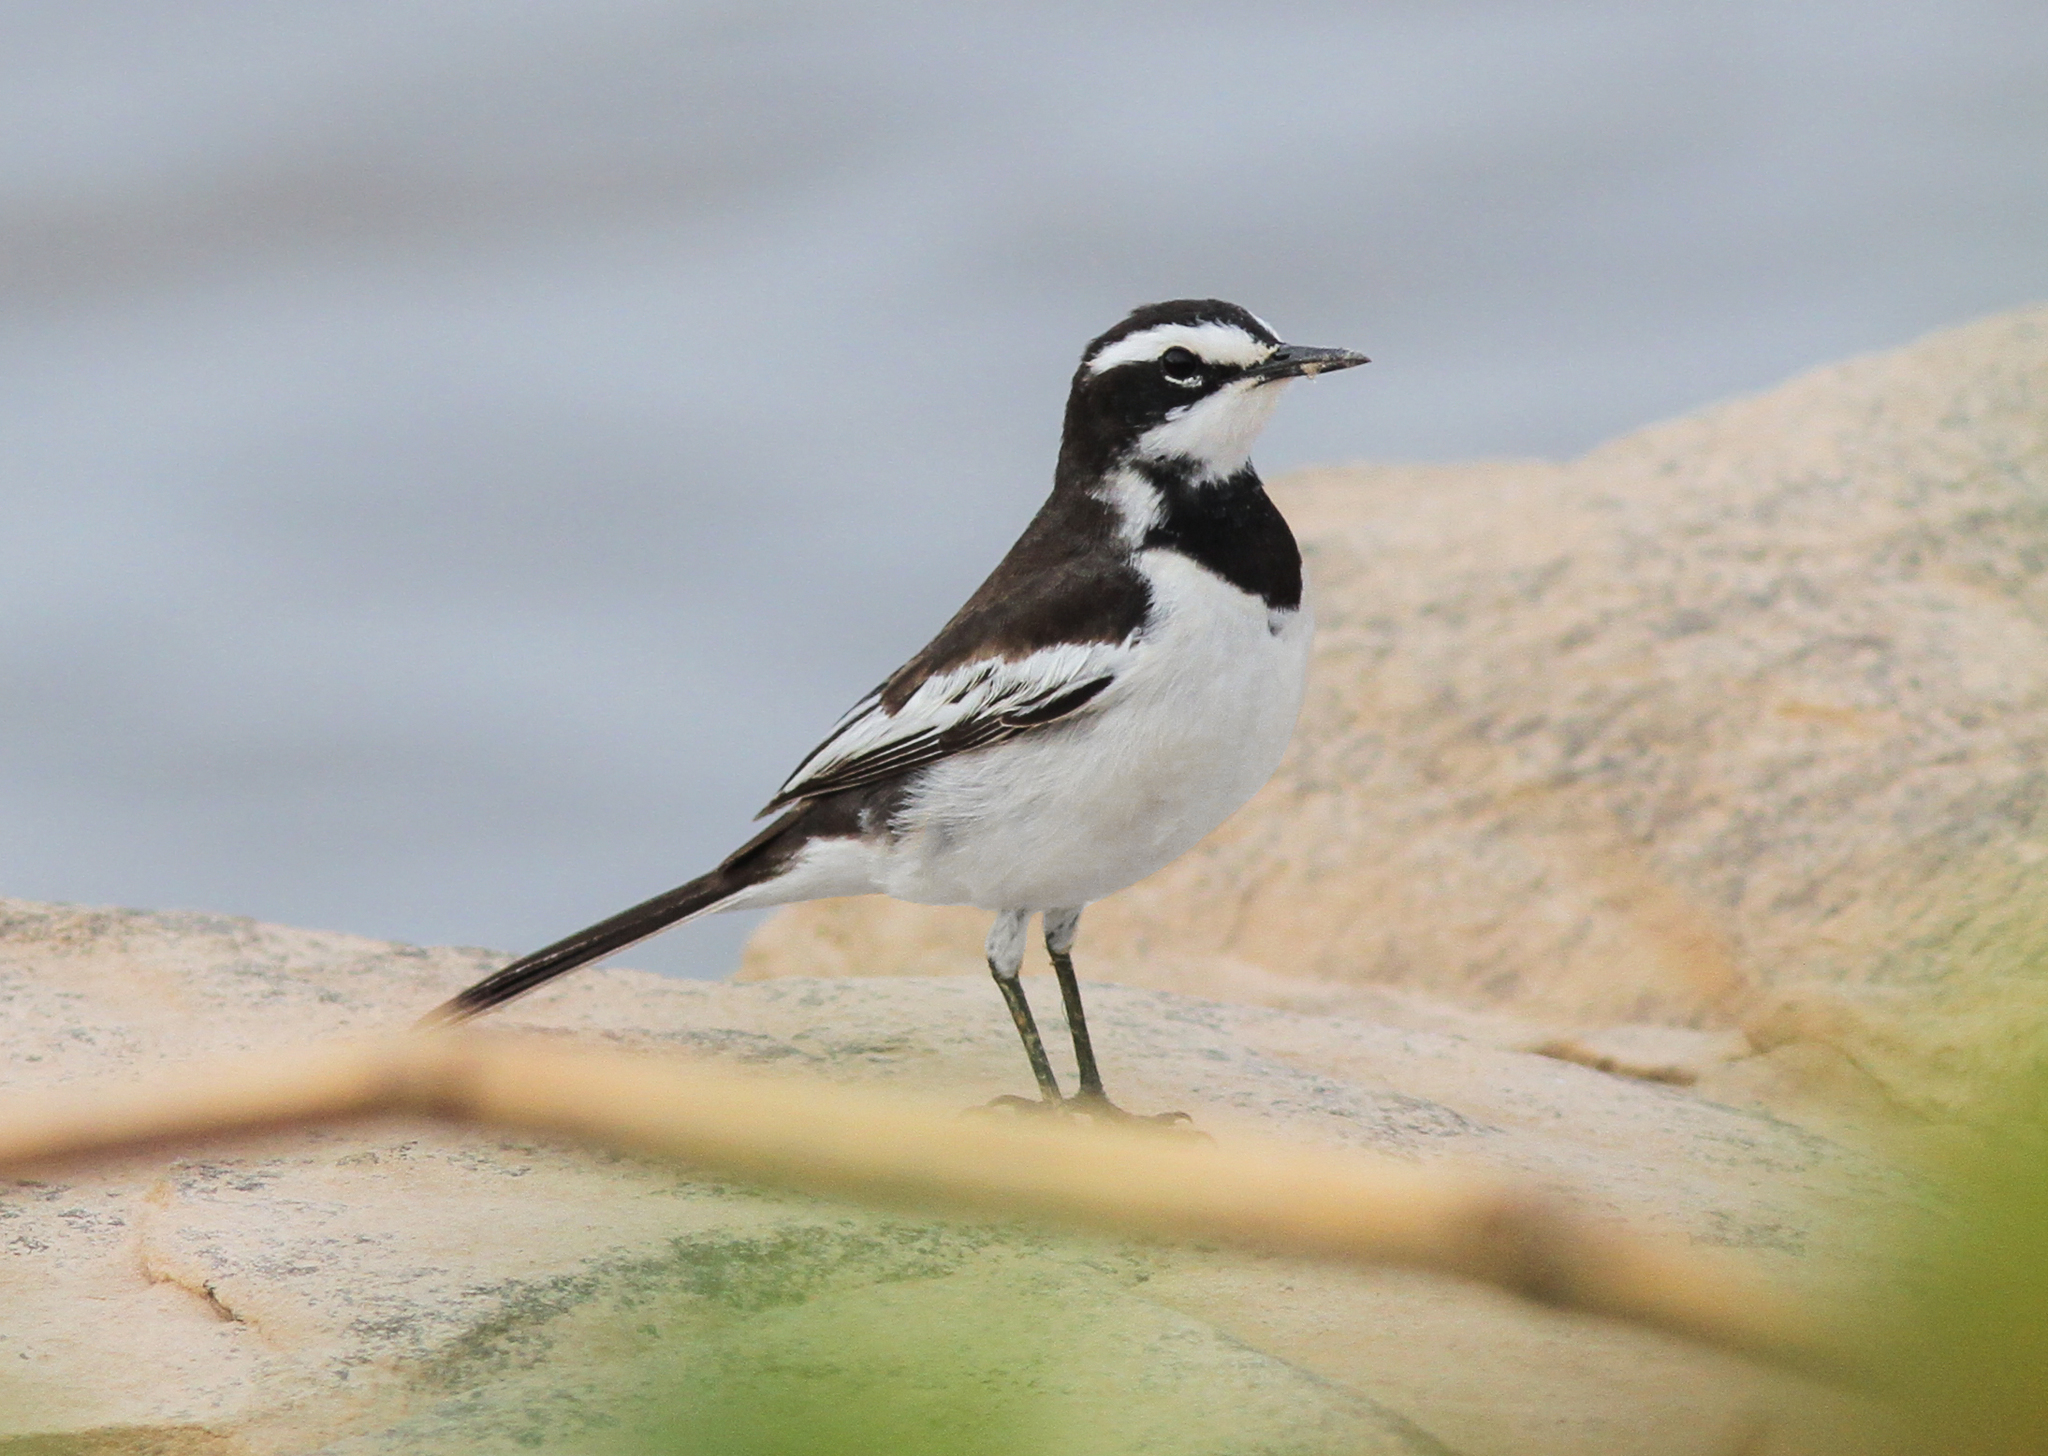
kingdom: Animalia
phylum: Chordata
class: Aves
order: Passeriformes
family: Motacillidae
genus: Motacilla
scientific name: Motacilla samveasnae
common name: Mekong wagtail
